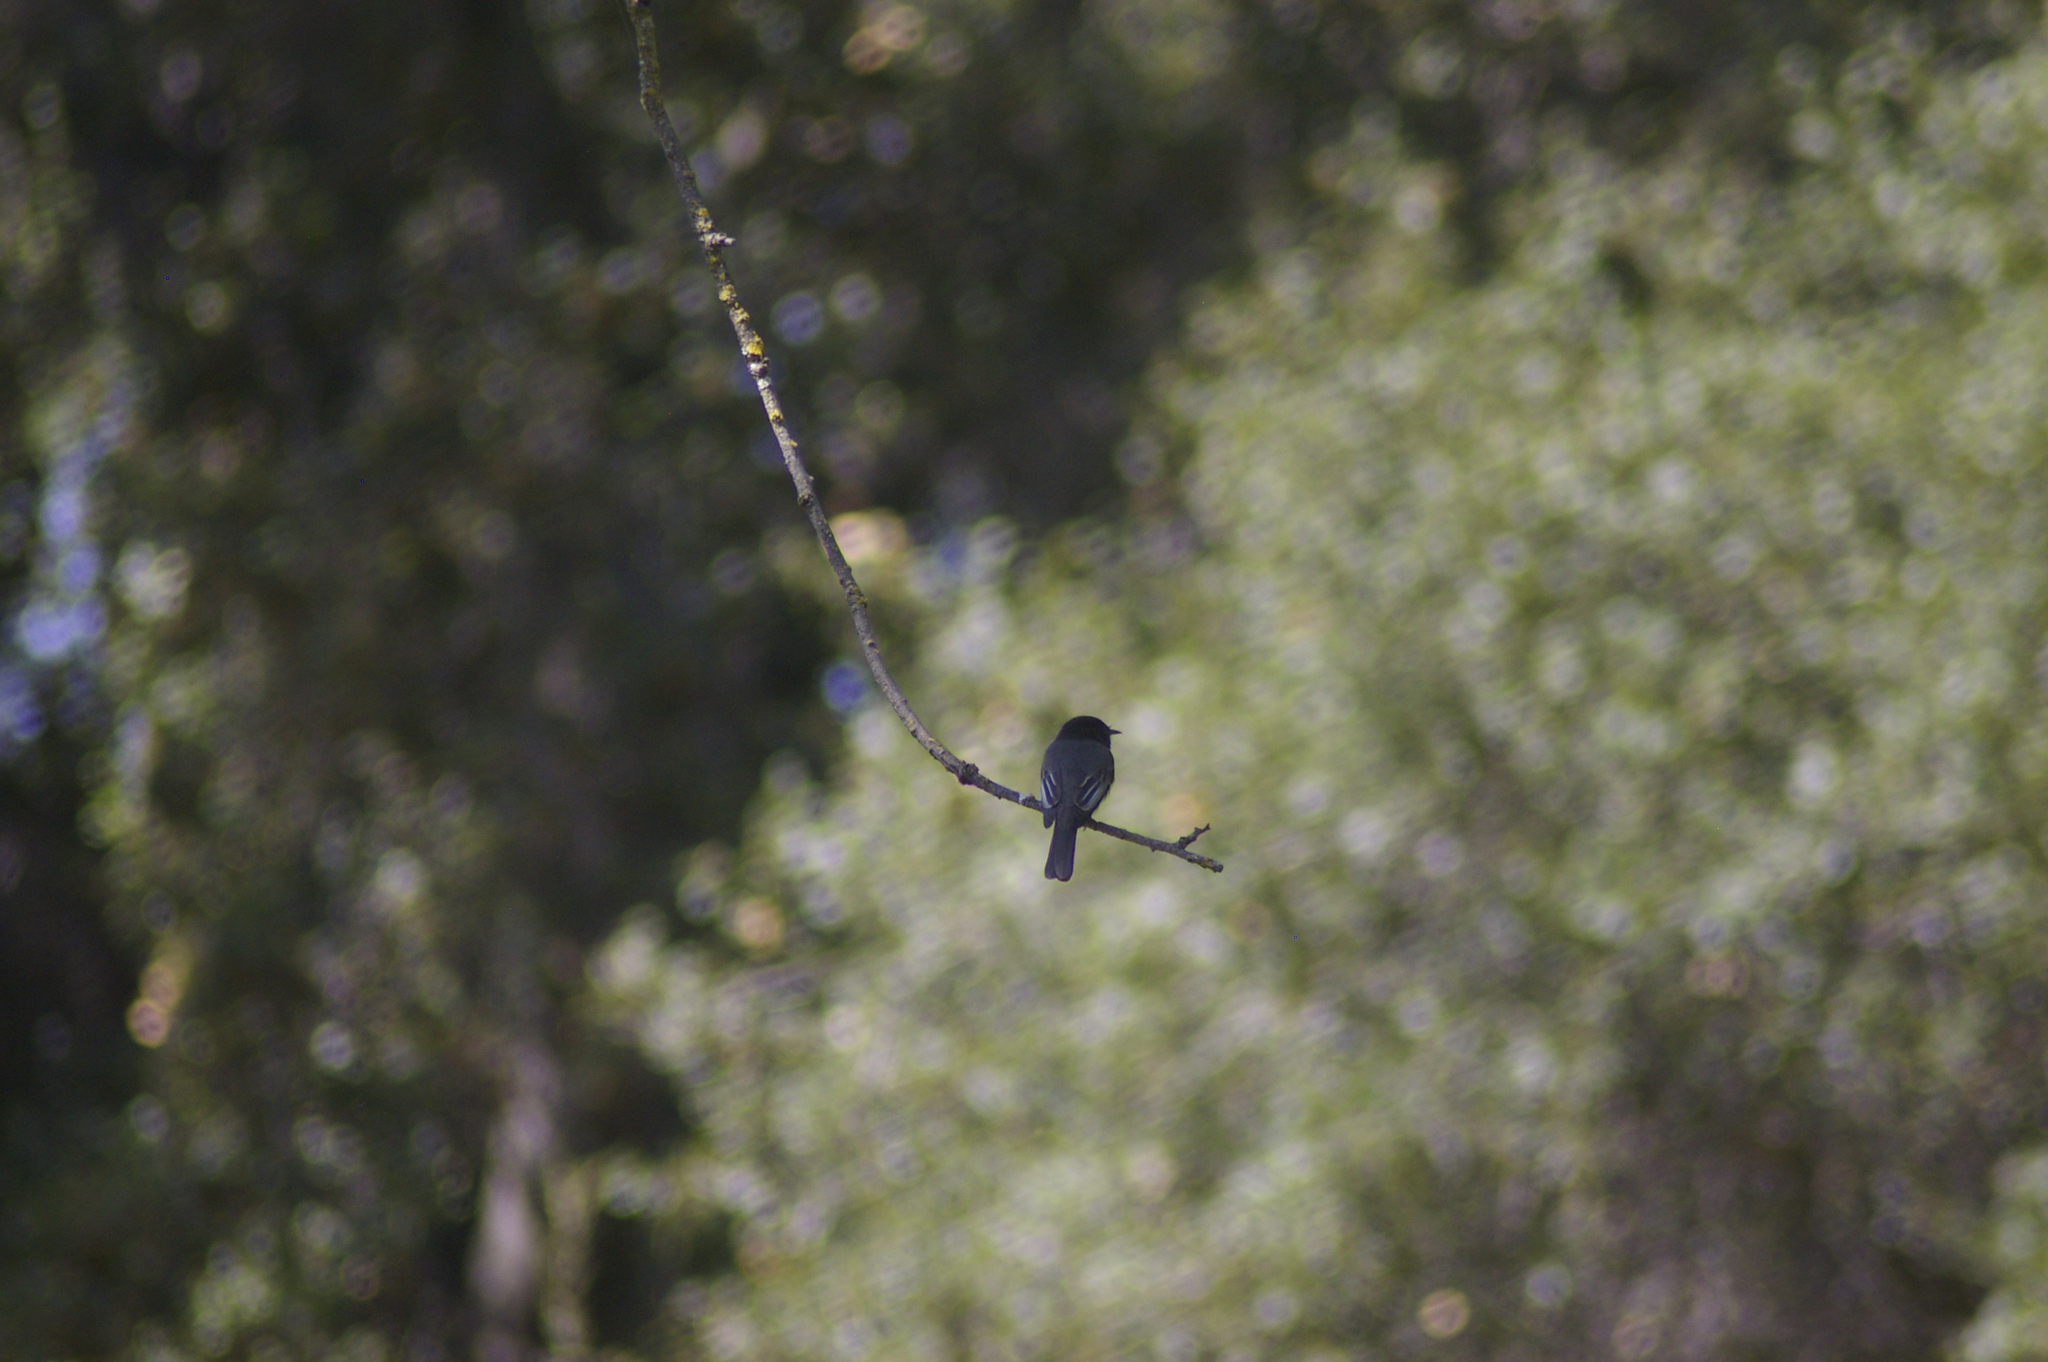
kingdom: Animalia
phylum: Chordata
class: Aves
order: Passeriformes
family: Tyrannidae
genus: Sayornis
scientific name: Sayornis nigricans
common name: Black phoebe
